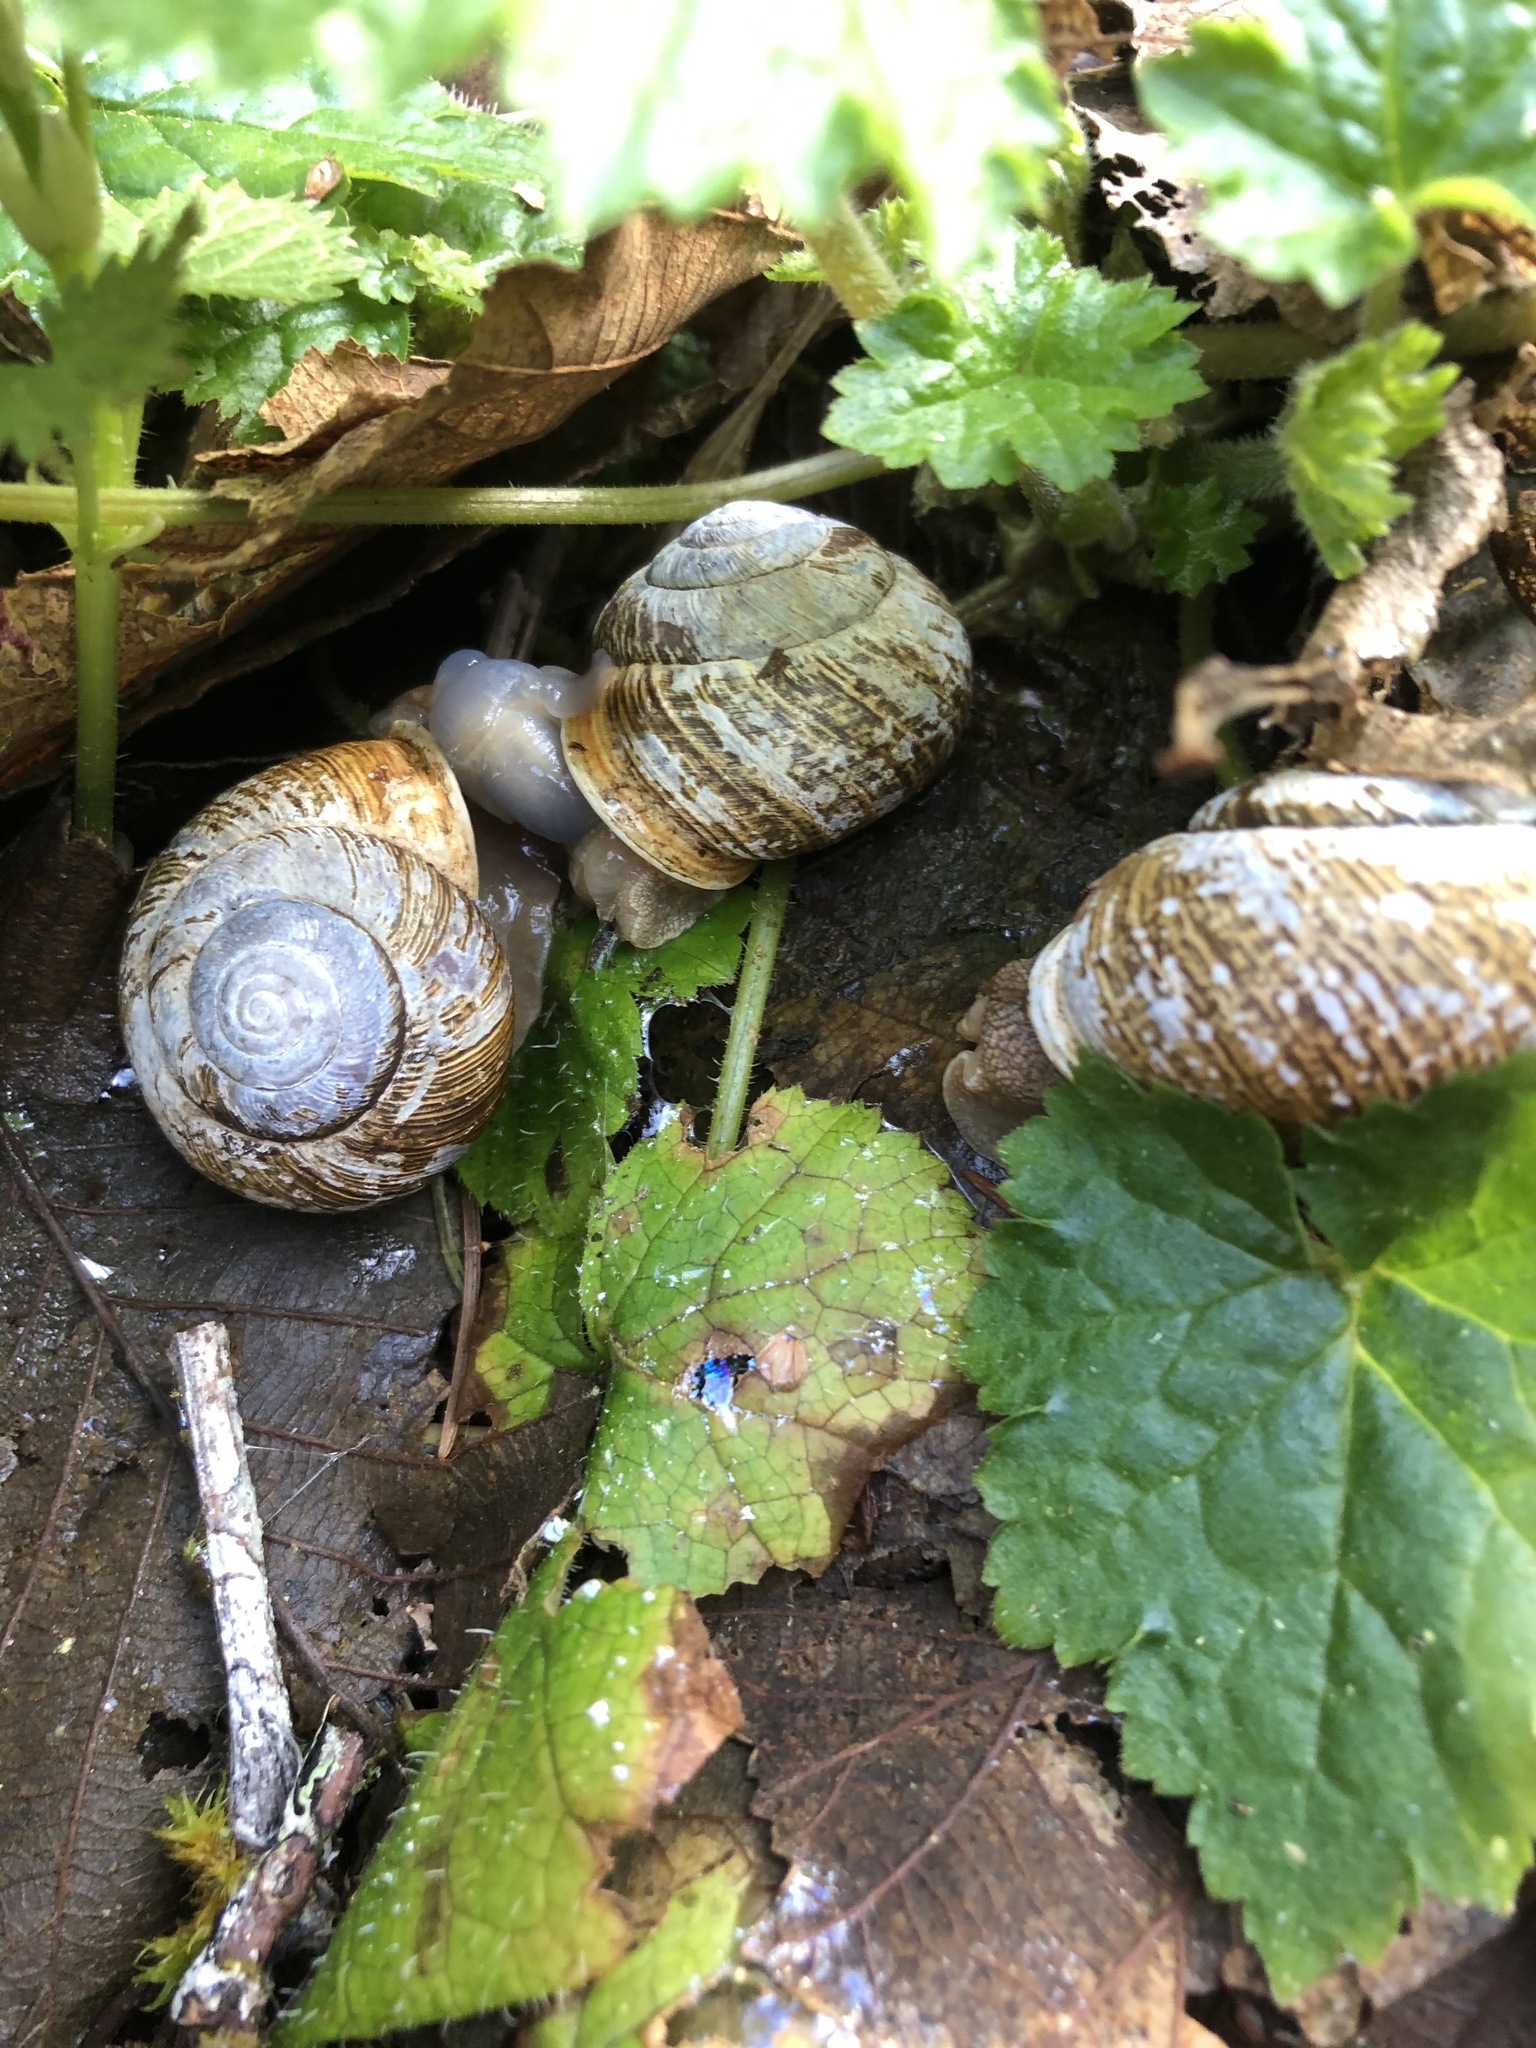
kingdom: Animalia
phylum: Mollusca
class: Gastropoda
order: Stylommatophora
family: Polygyridae
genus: Allogona
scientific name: Allogona townsendiana
